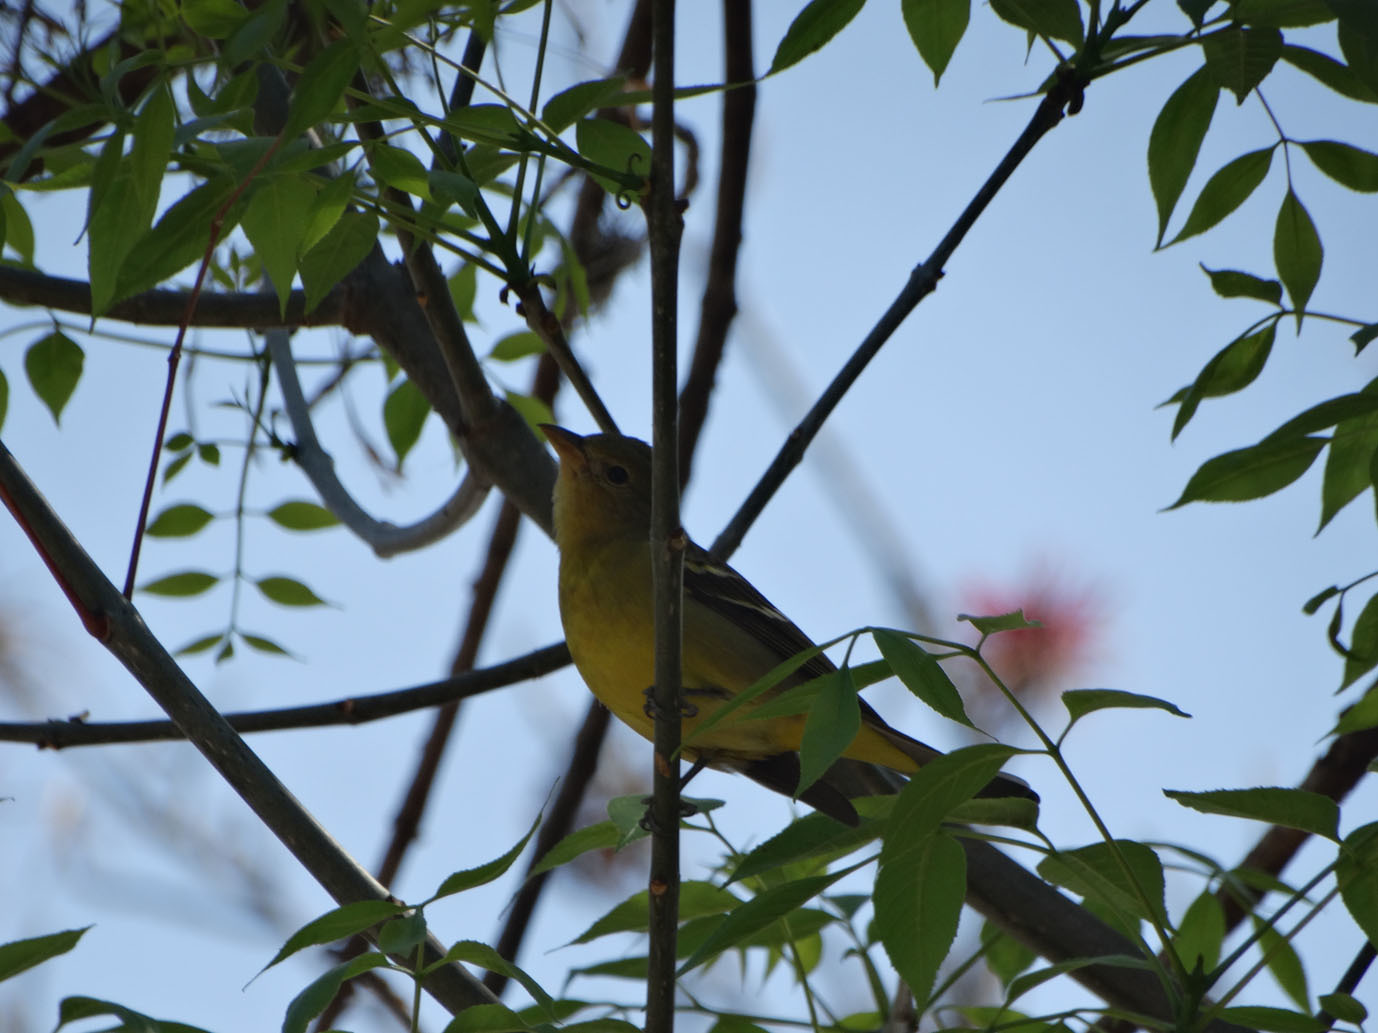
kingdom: Animalia
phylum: Chordata
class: Aves
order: Passeriformes
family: Cardinalidae
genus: Piranga
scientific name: Piranga ludoviciana
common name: Western tanager
